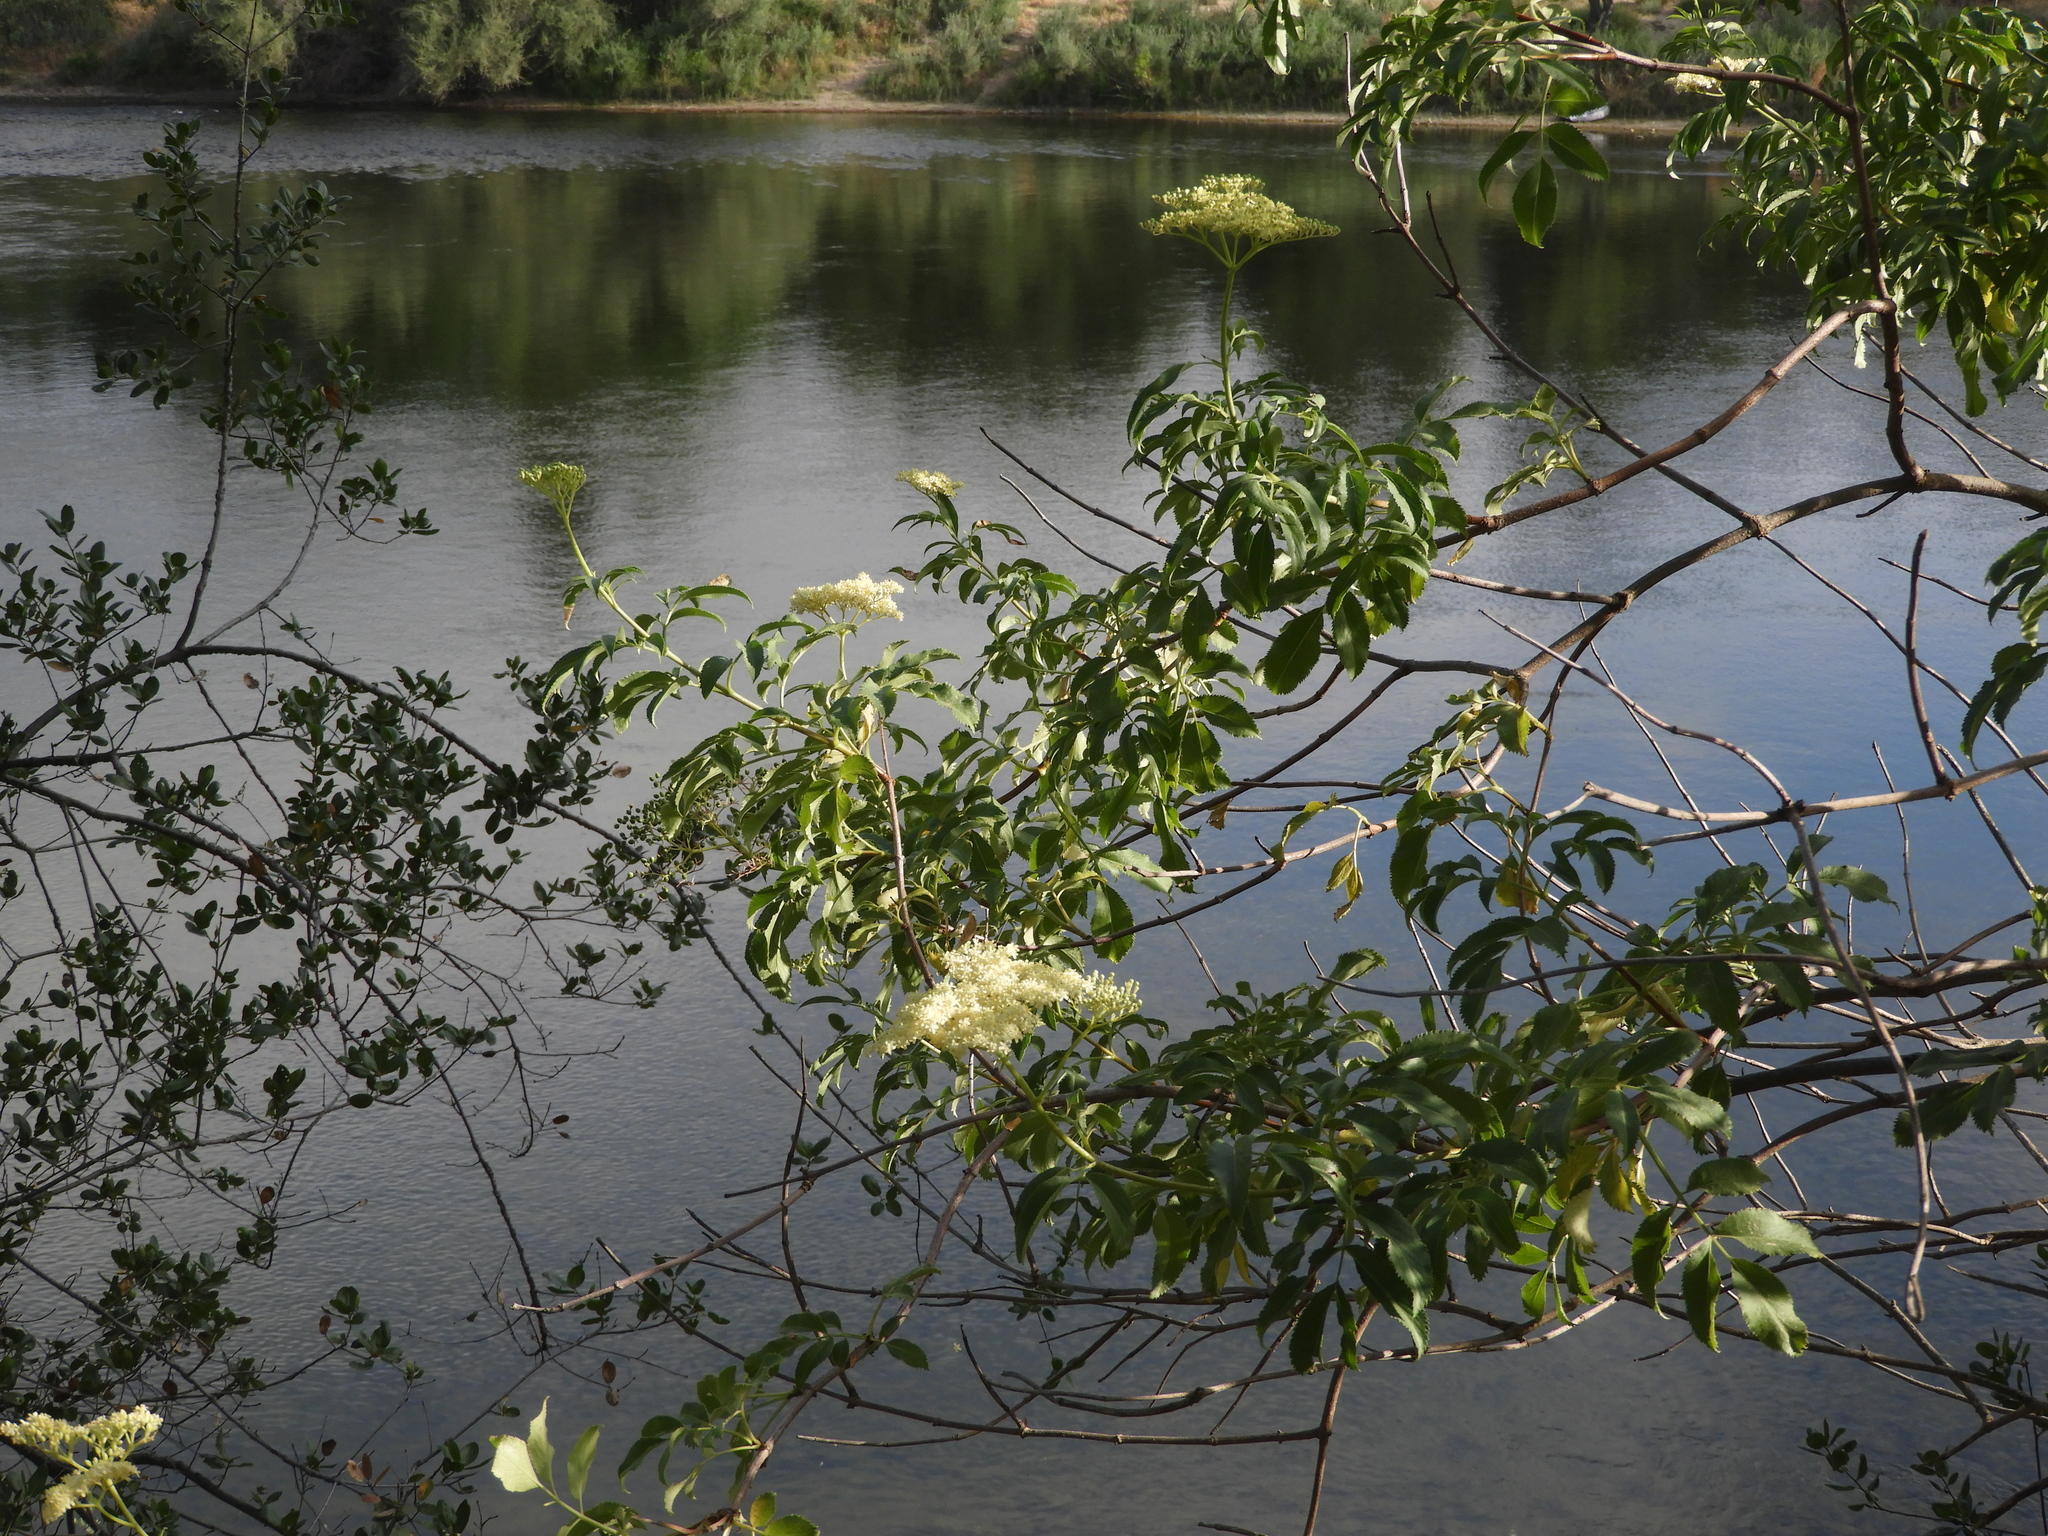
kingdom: Plantae
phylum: Tracheophyta
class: Magnoliopsida
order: Dipsacales
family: Viburnaceae
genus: Sambucus
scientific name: Sambucus cerulea
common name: Blue elder
